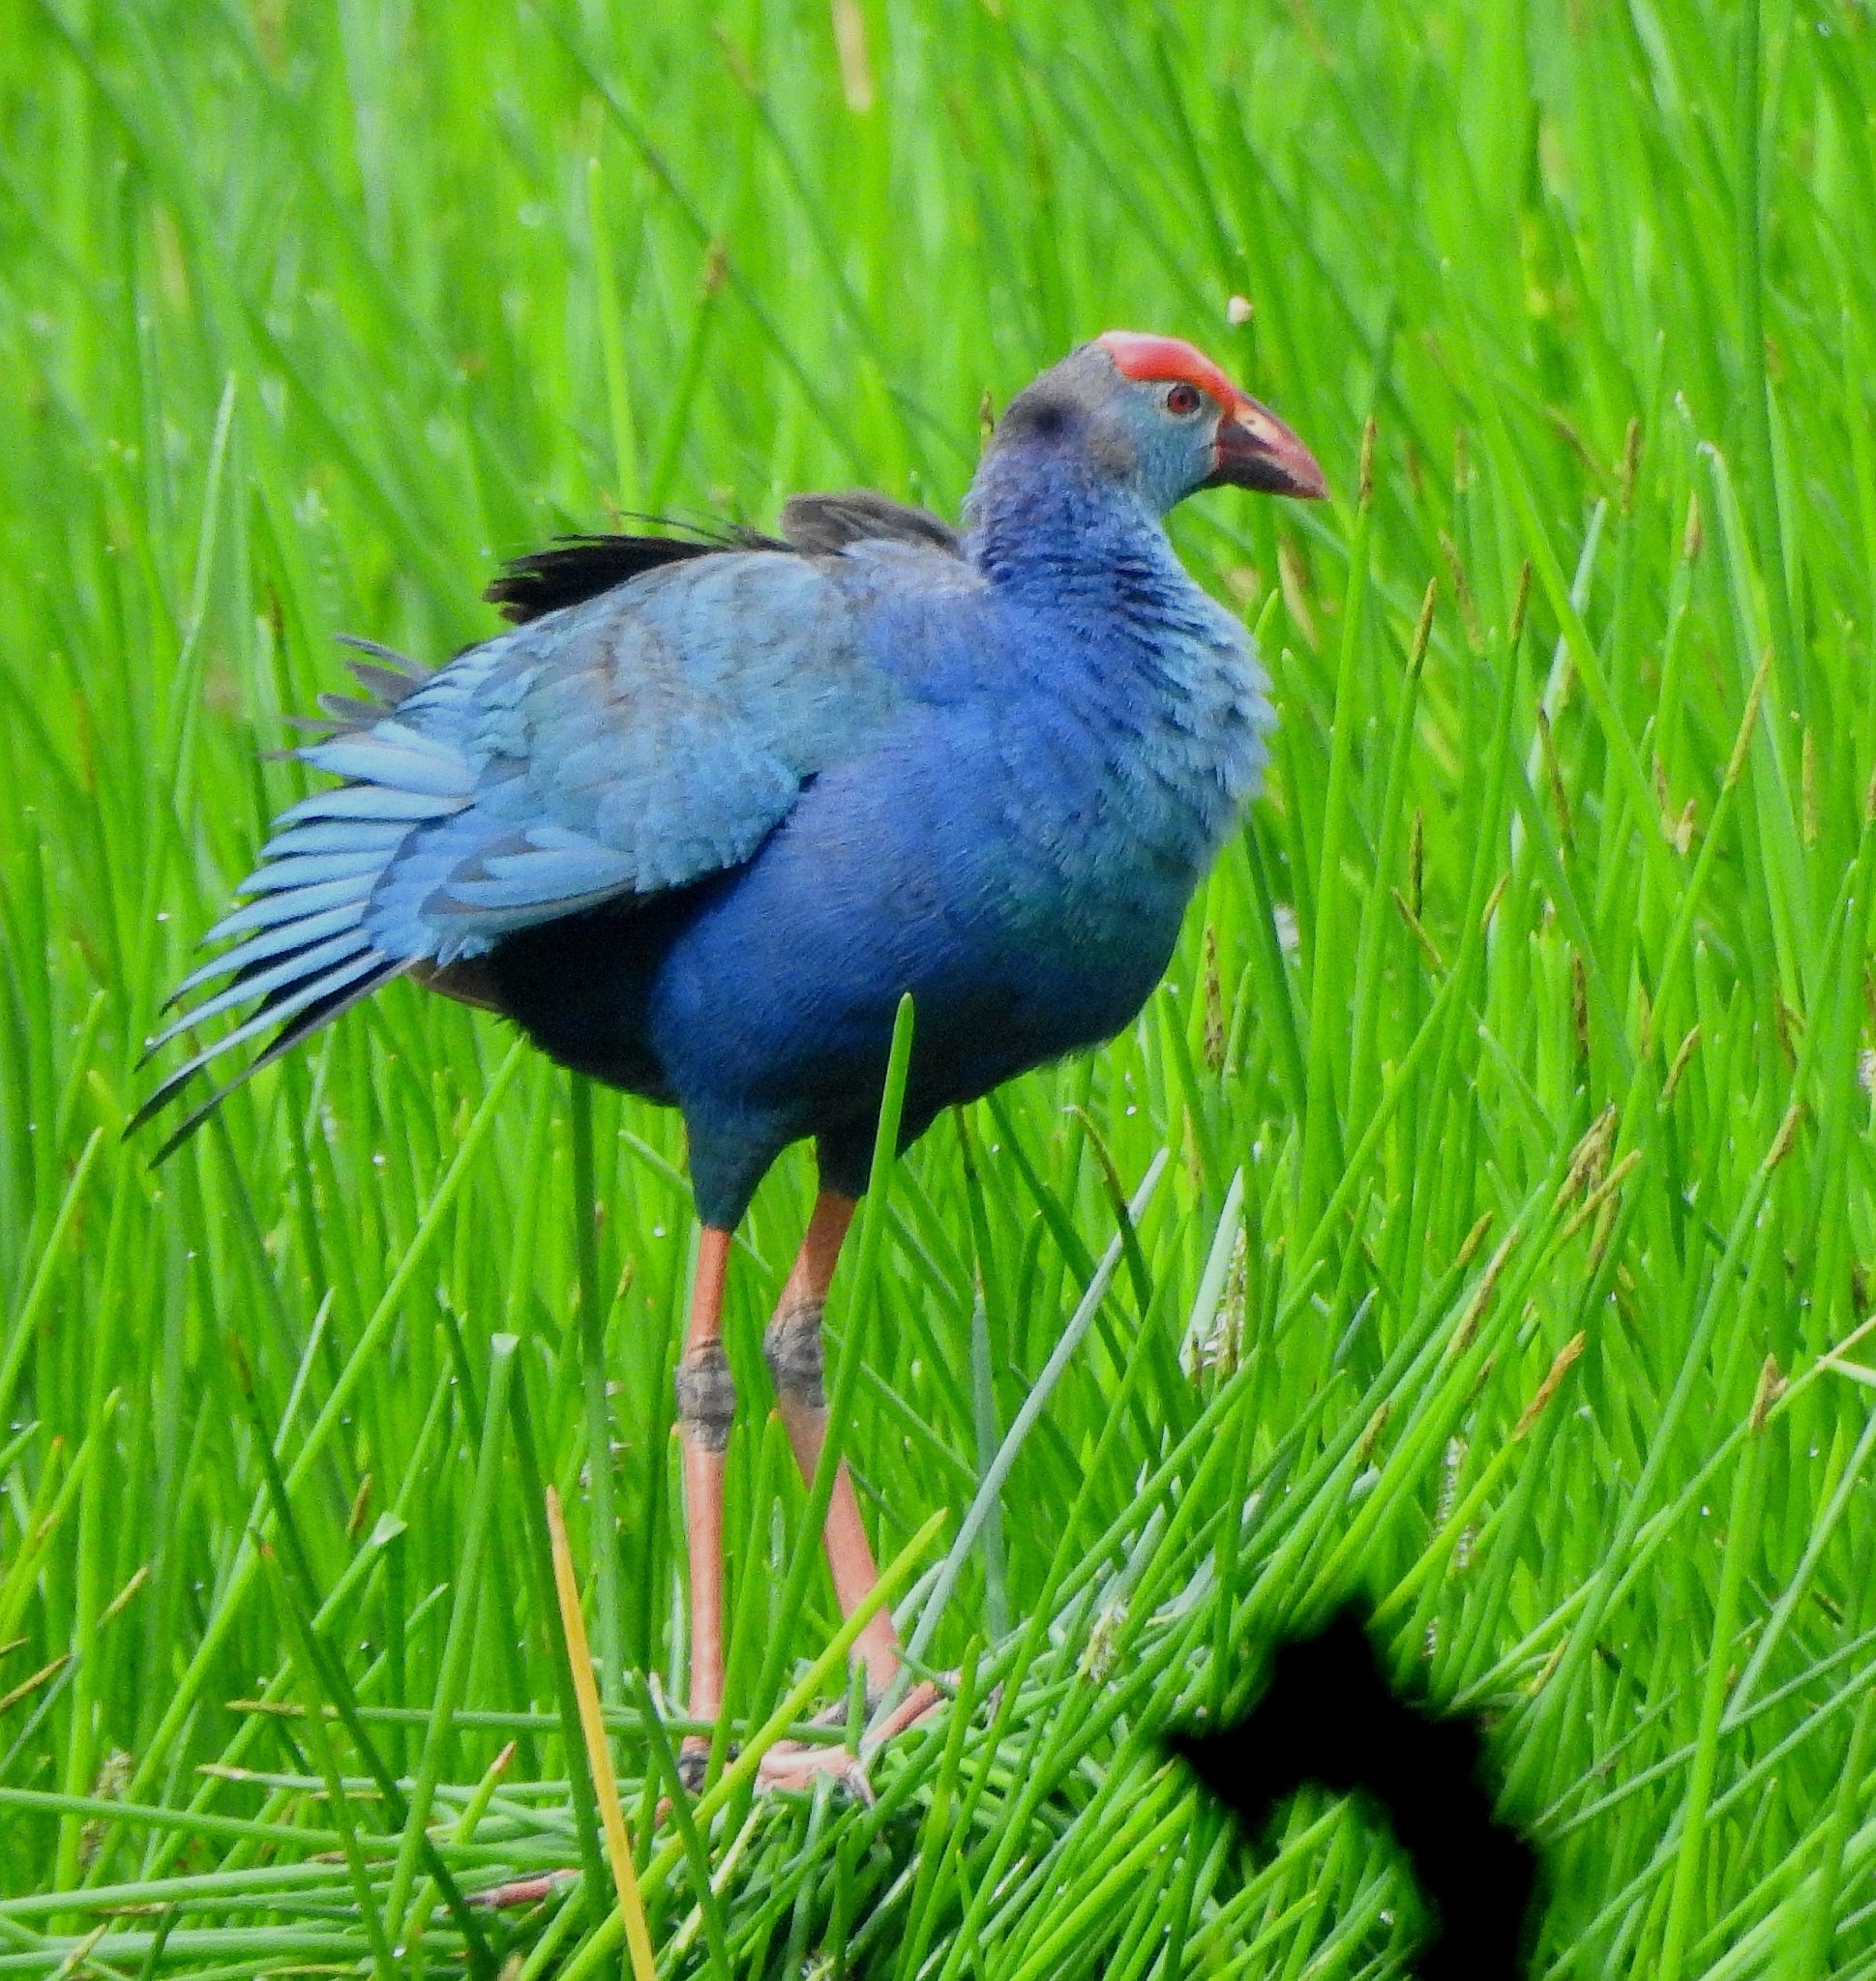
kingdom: Animalia
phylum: Chordata
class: Aves
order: Gruiformes
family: Rallidae
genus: Porphyrio
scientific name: Porphyrio porphyrio
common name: Purple swamphen
